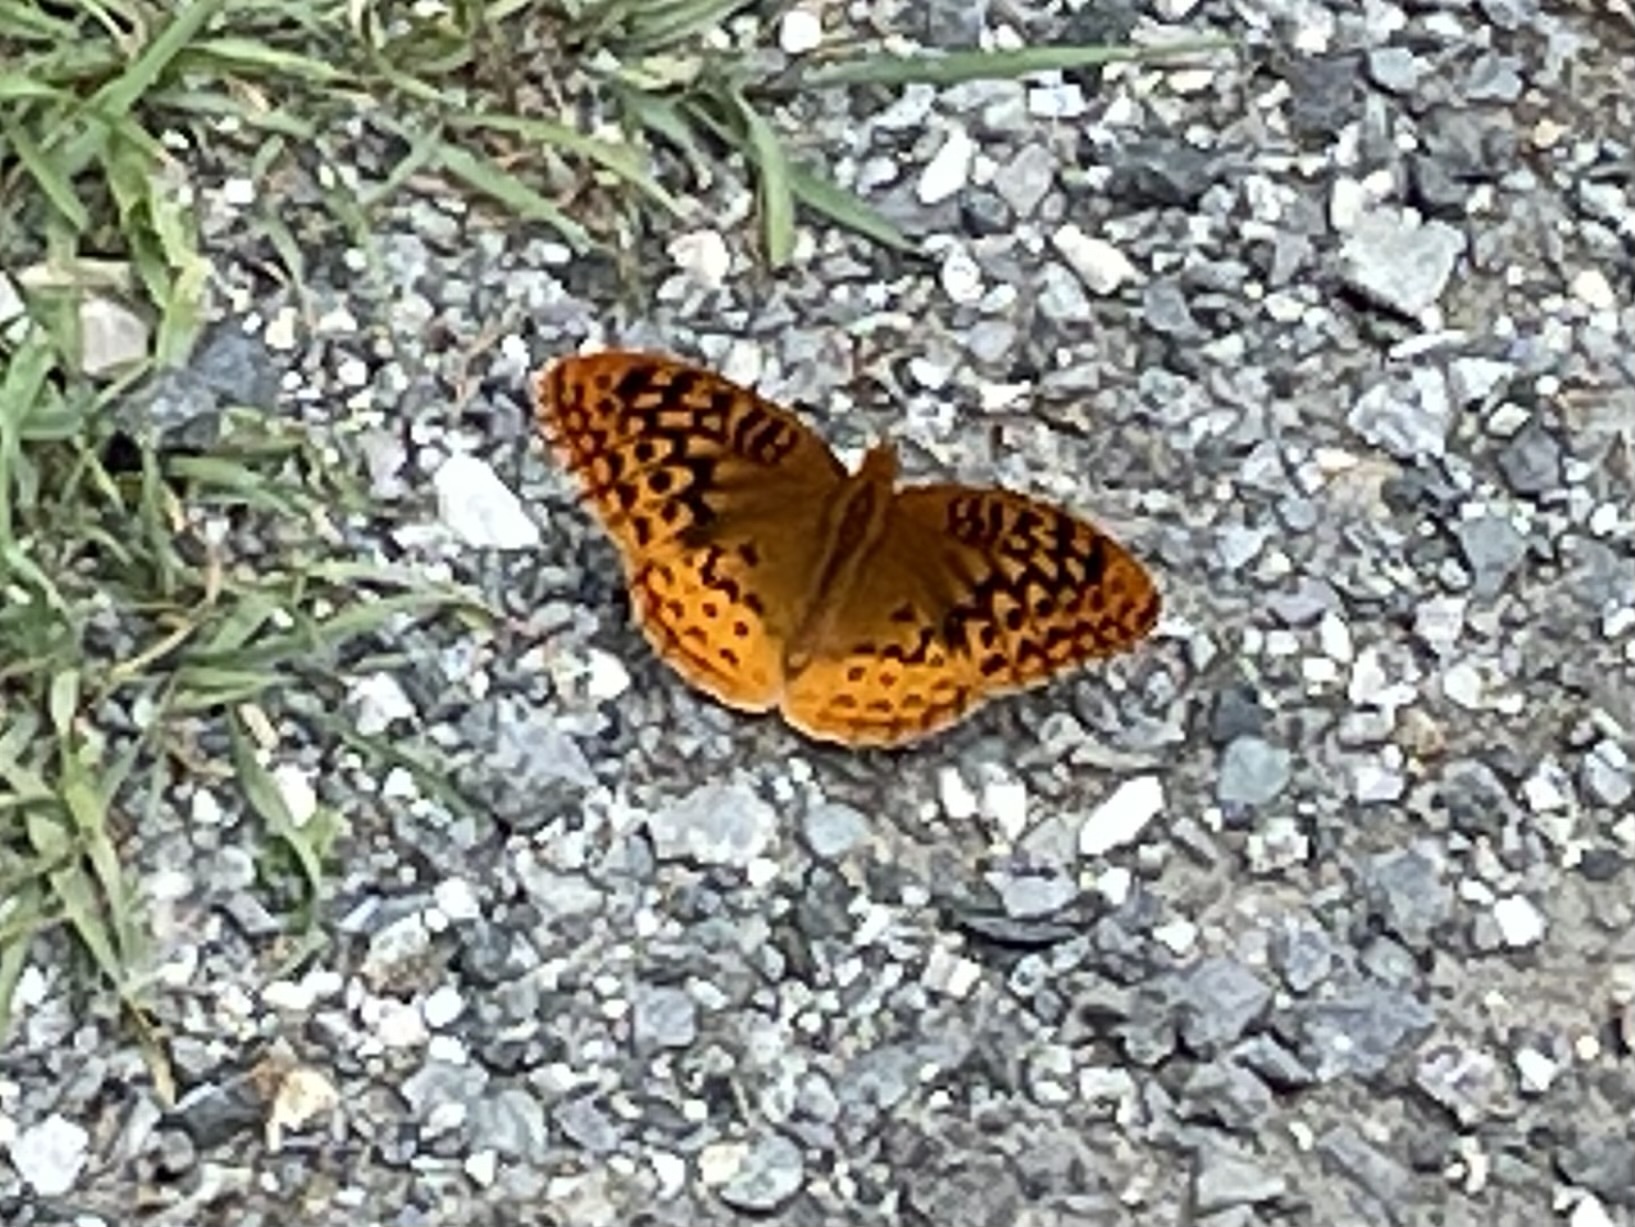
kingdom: Animalia
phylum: Arthropoda
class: Insecta
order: Lepidoptera
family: Nymphalidae
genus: Speyeria
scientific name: Speyeria cybele
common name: Great spangled fritillary
